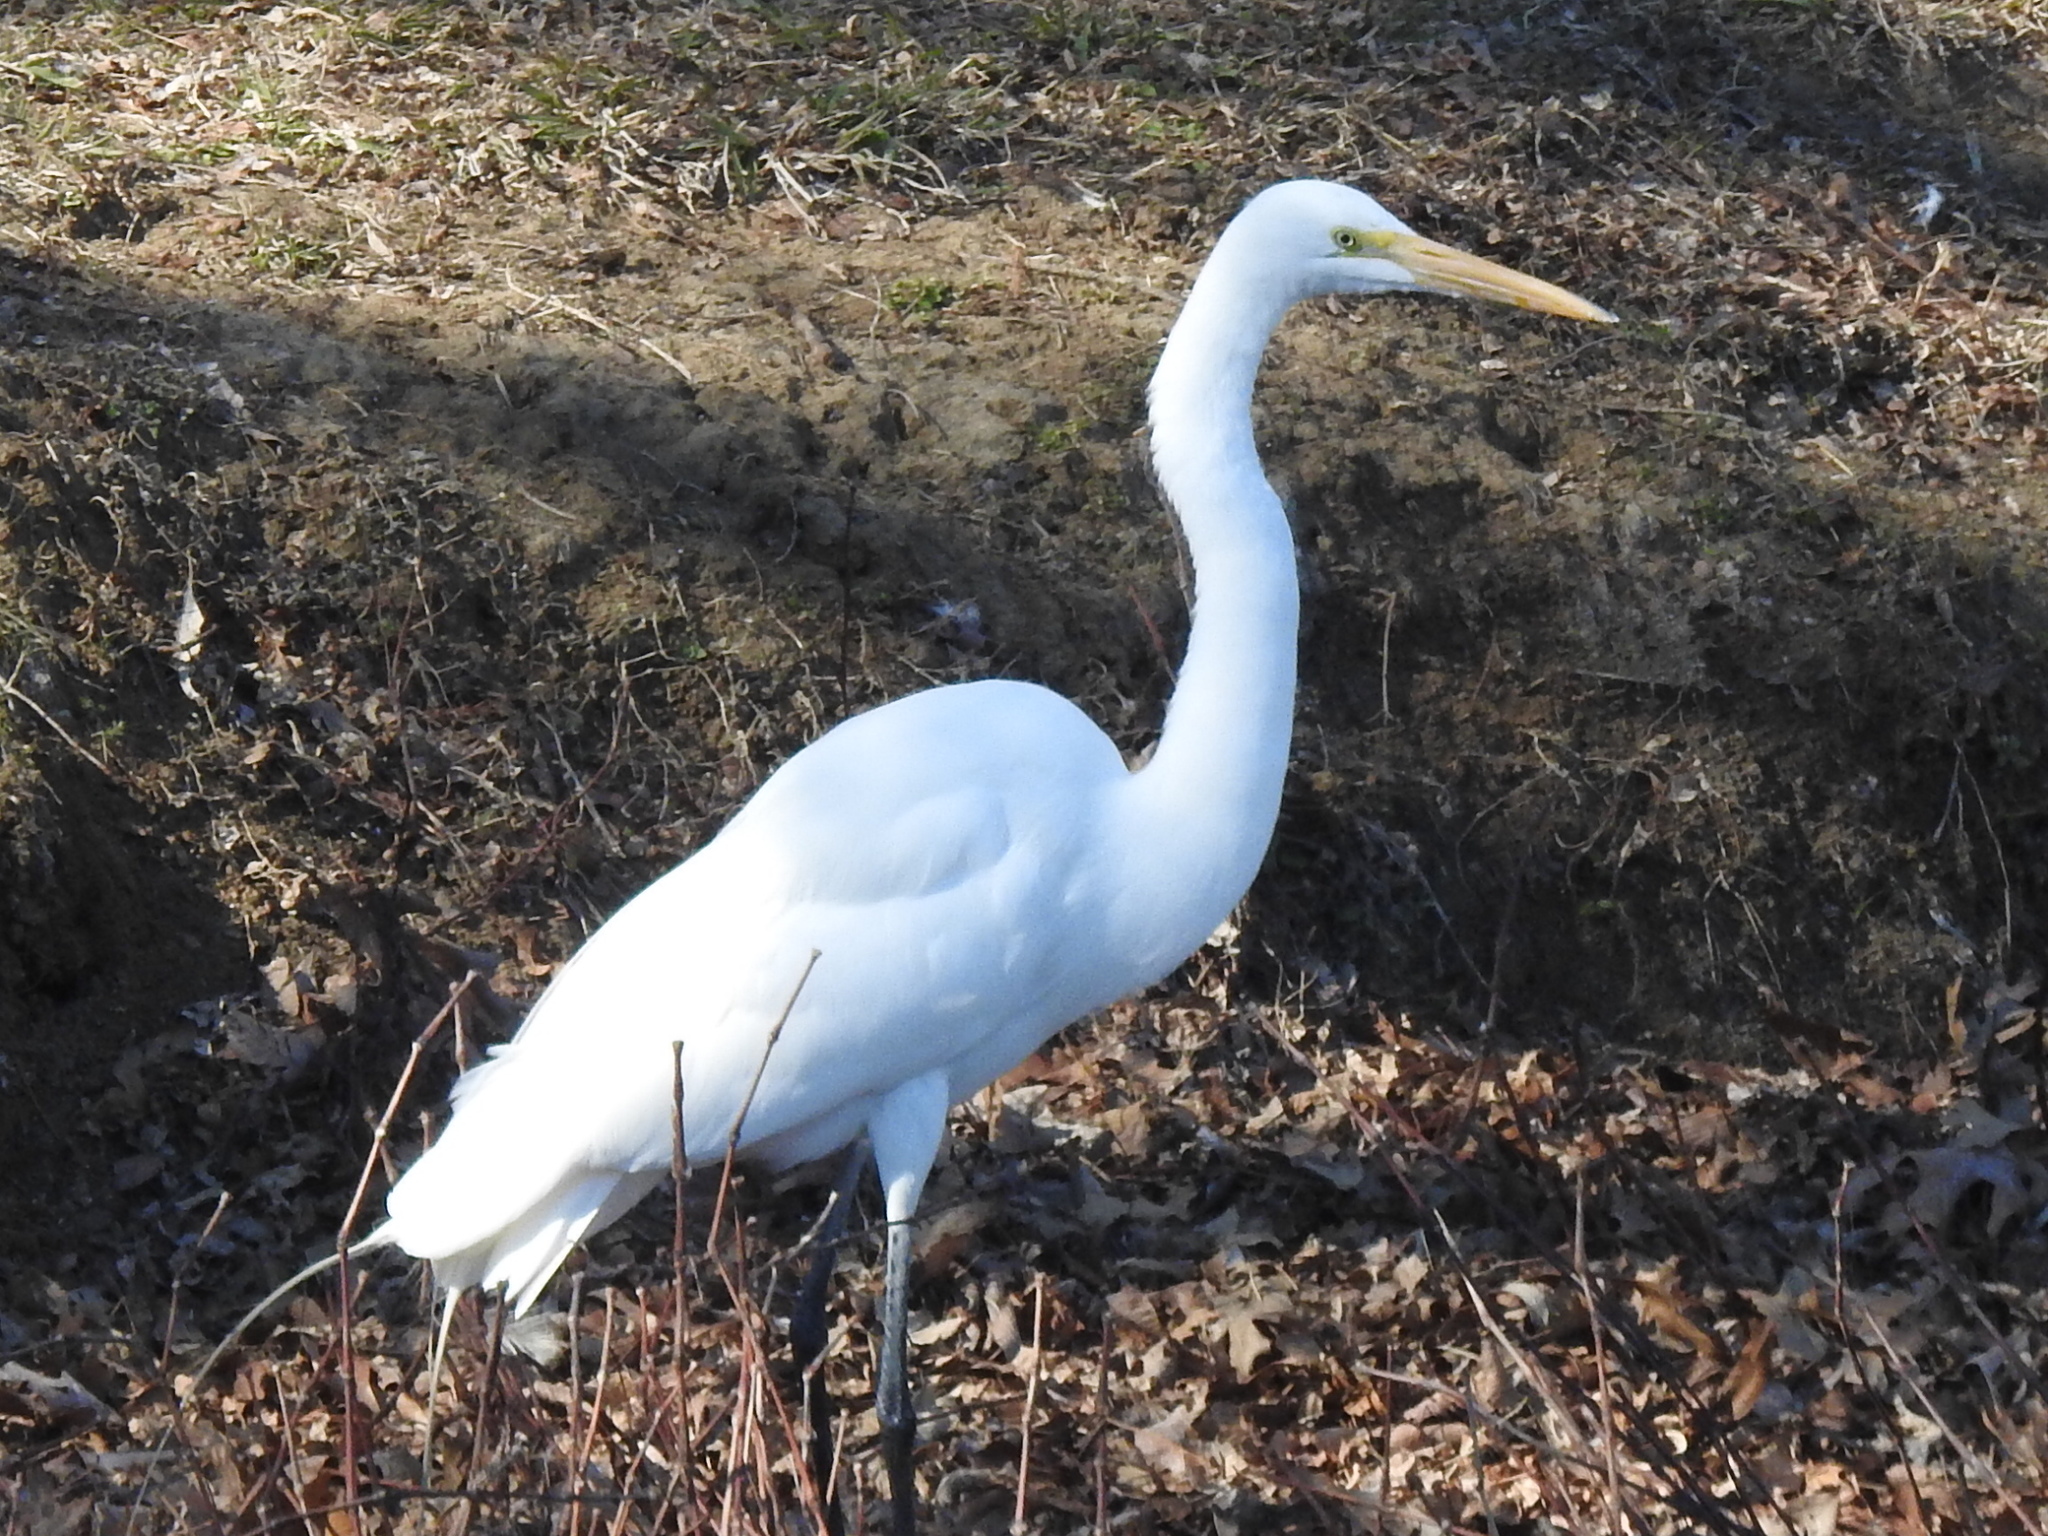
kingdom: Animalia
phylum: Chordata
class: Aves
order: Pelecaniformes
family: Ardeidae
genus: Ardea
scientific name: Ardea alba
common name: Great egret
